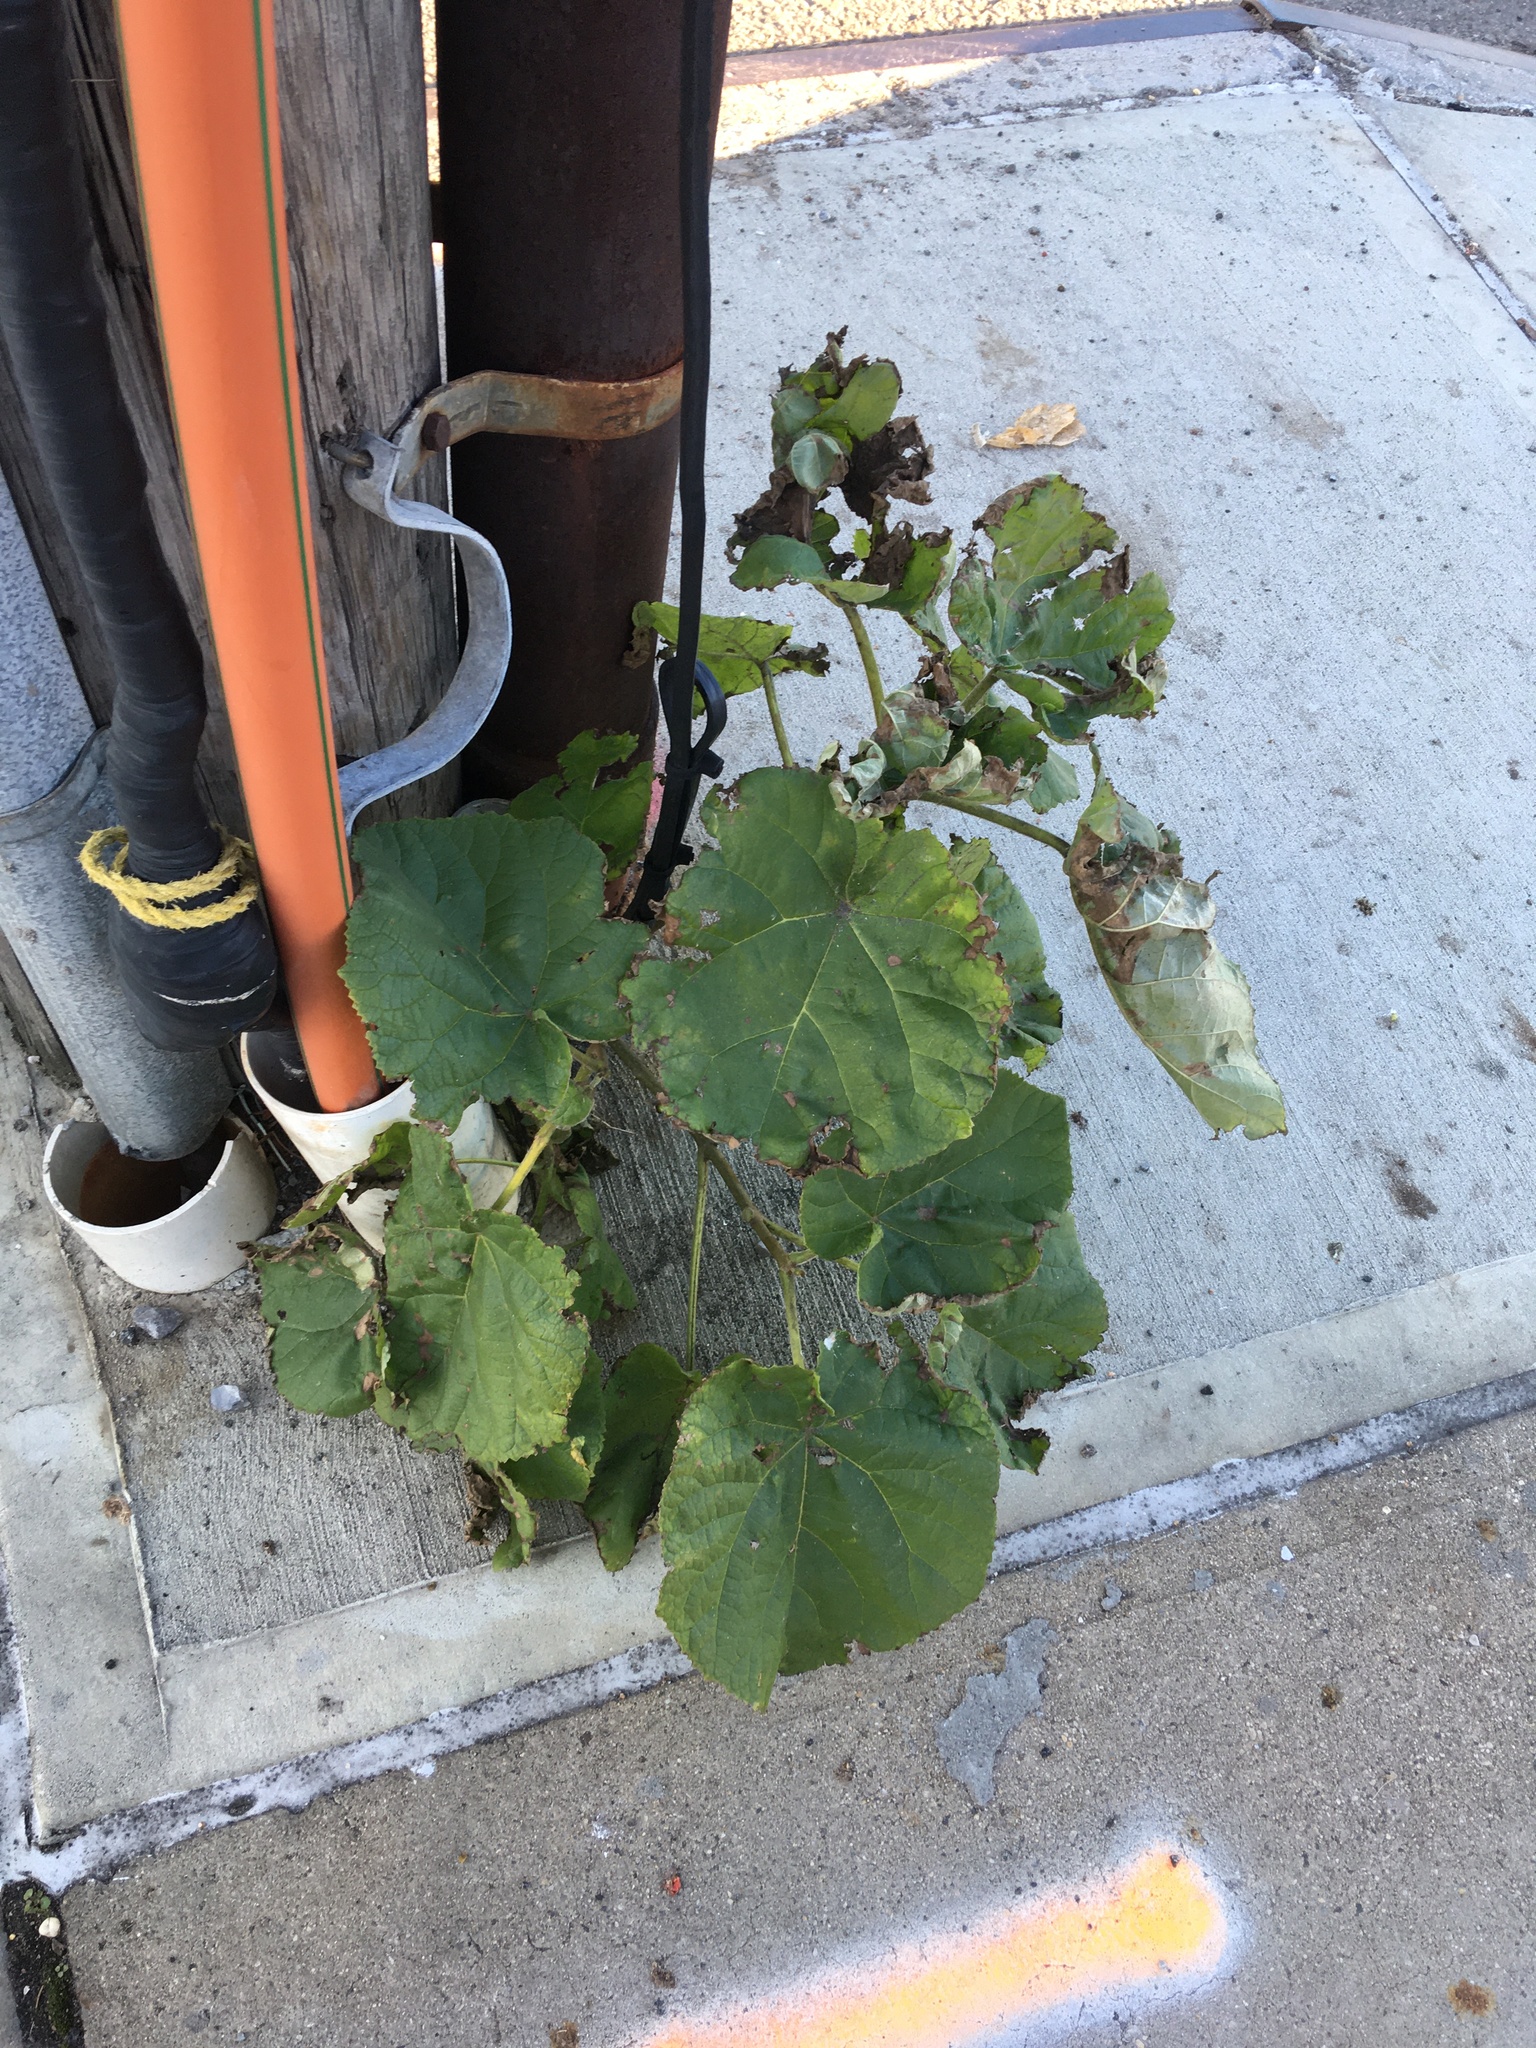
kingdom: Plantae
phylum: Tracheophyta
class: Magnoliopsida
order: Lamiales
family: Paulowniaceae
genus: Paulownia
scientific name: Paulownia tomentosa
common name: Foxglove-tree
